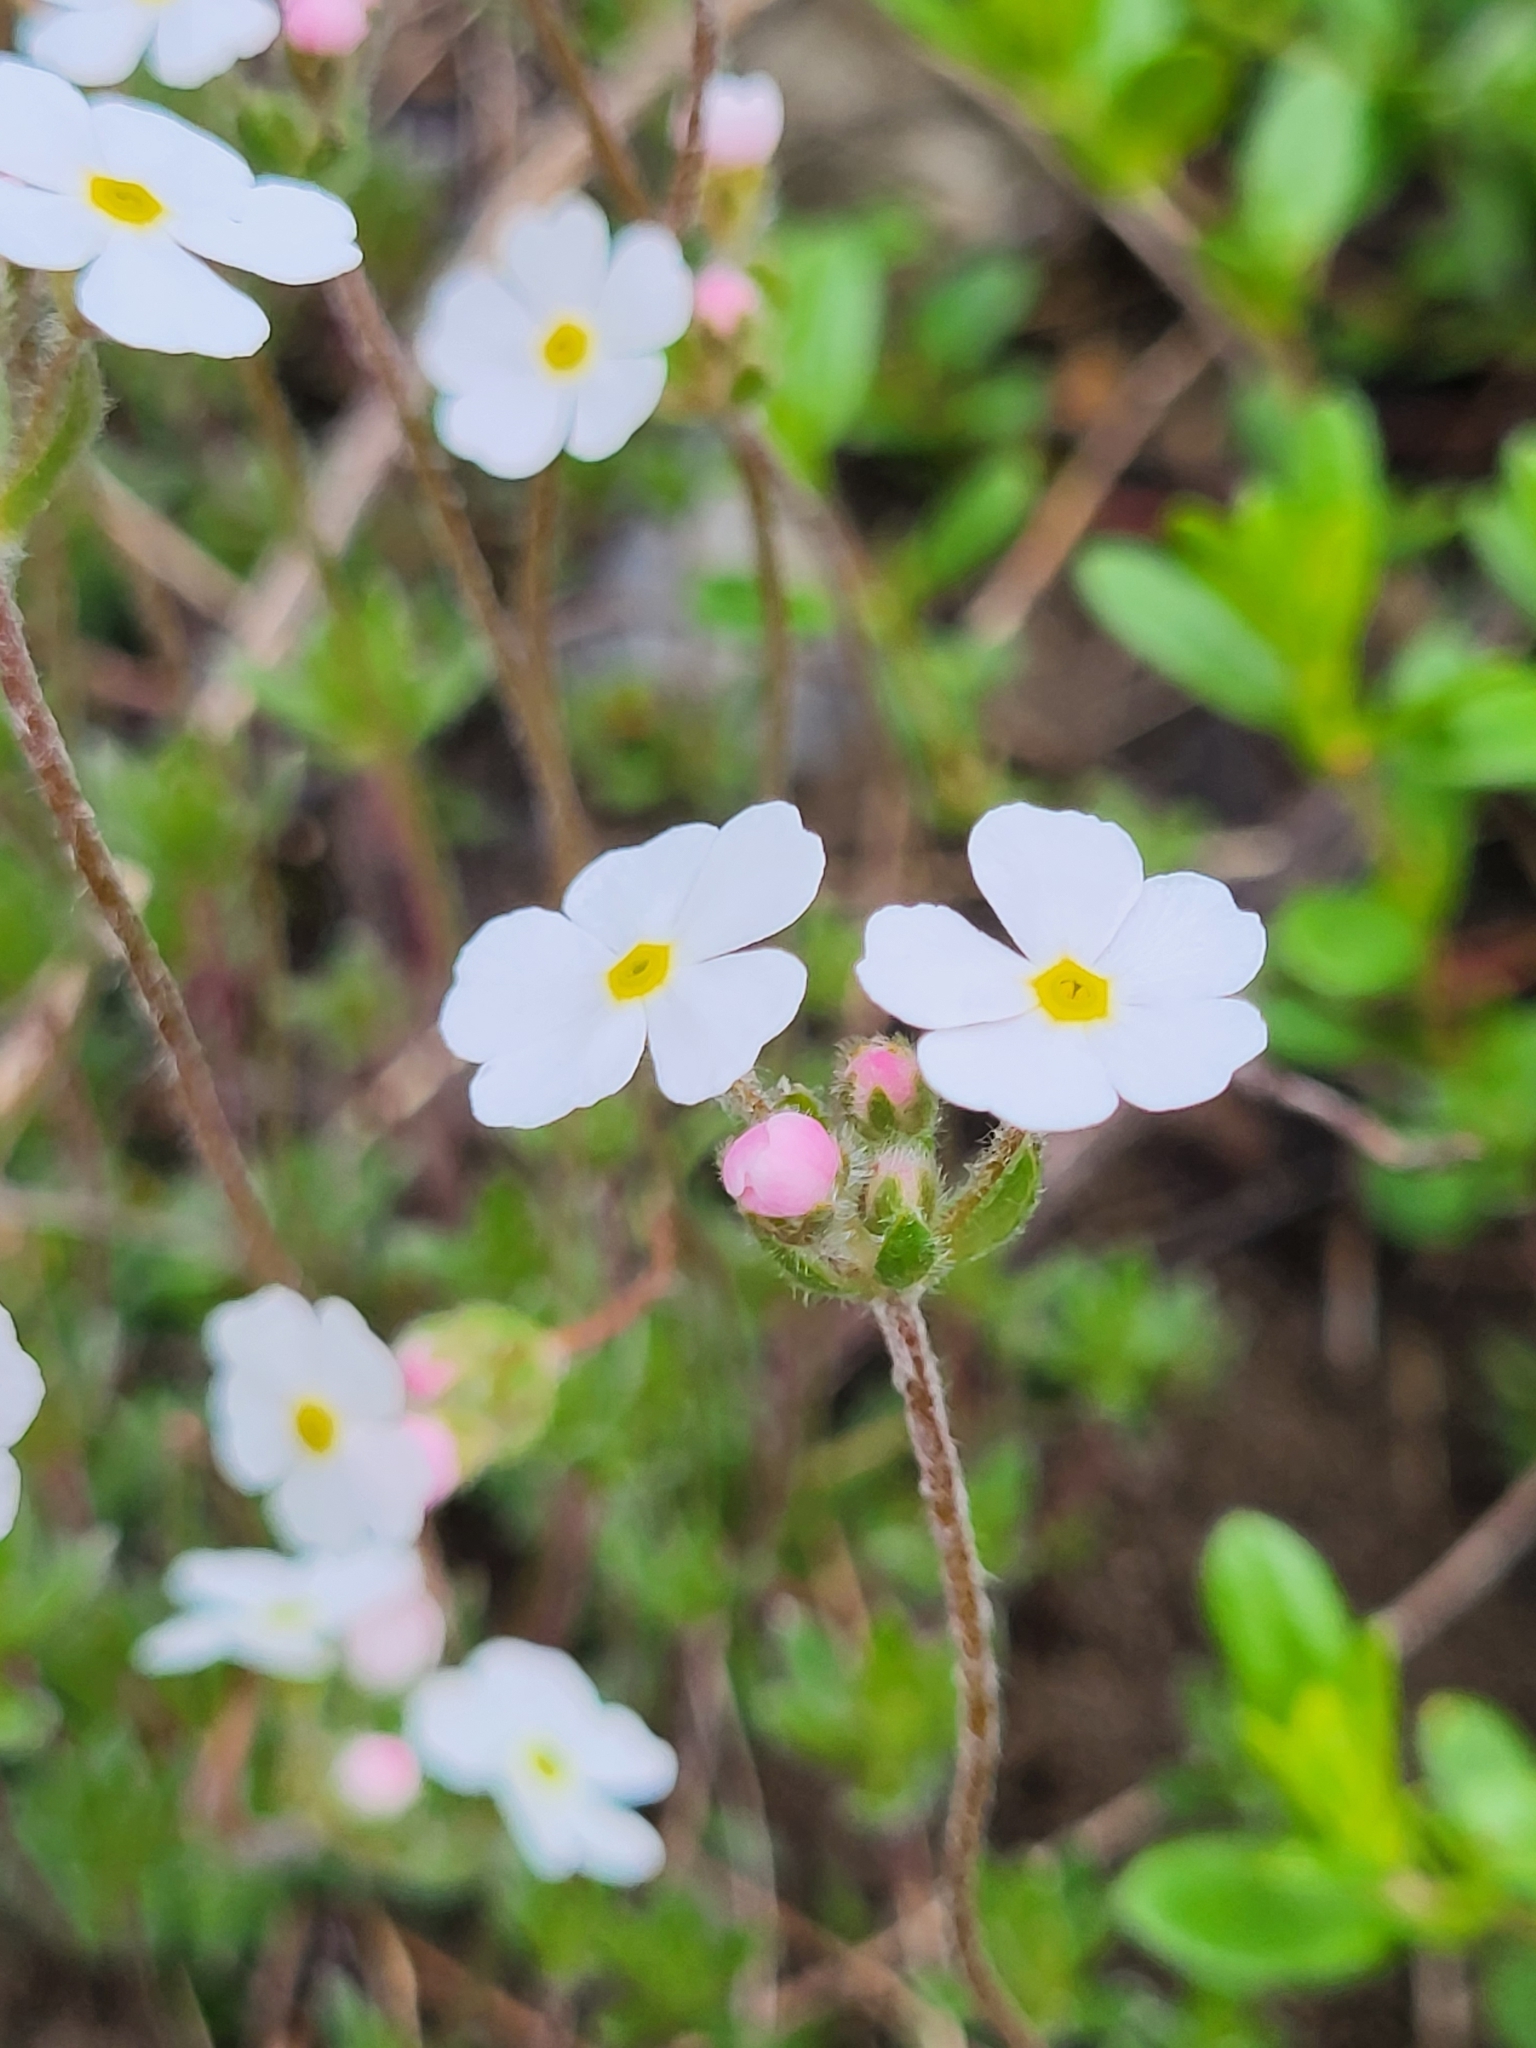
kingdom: Plantae
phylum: Tracheophyta
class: Magnoliopsida
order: Ericales
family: Primulaceae
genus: Androsace
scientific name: Androsace villosa
